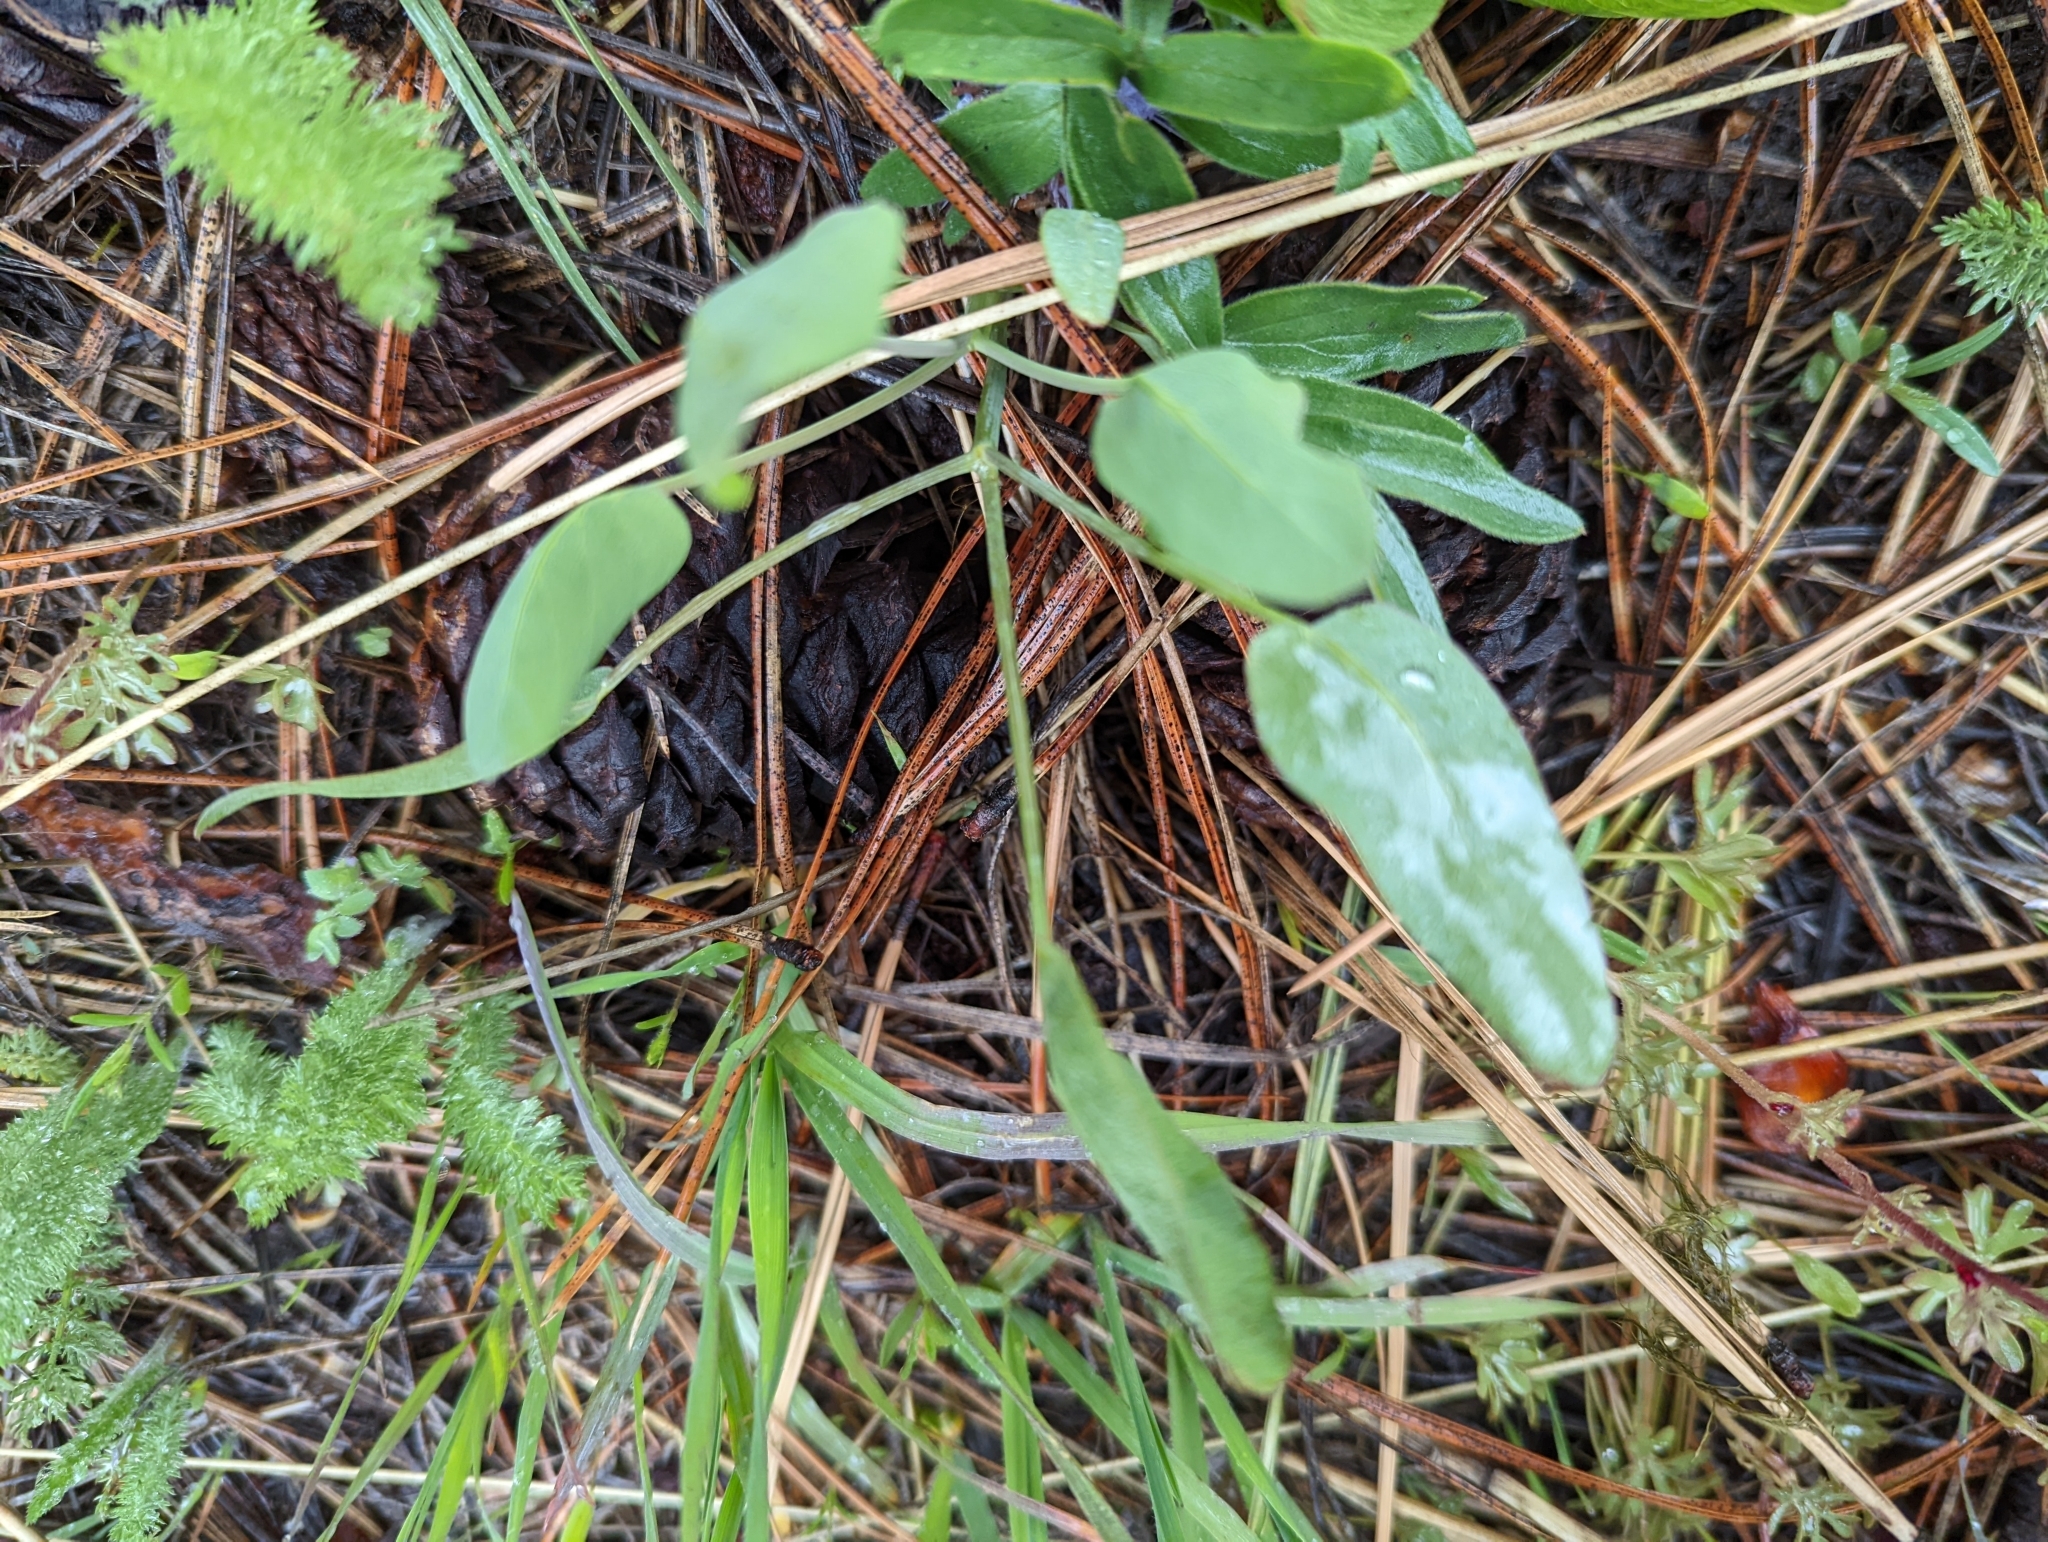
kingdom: Plantae
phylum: Tracheophyta
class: Magnoliopsida
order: Apiales
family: Apiaceae
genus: Lomatium
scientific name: Lomatium nudicaule
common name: Pestle lomatium
